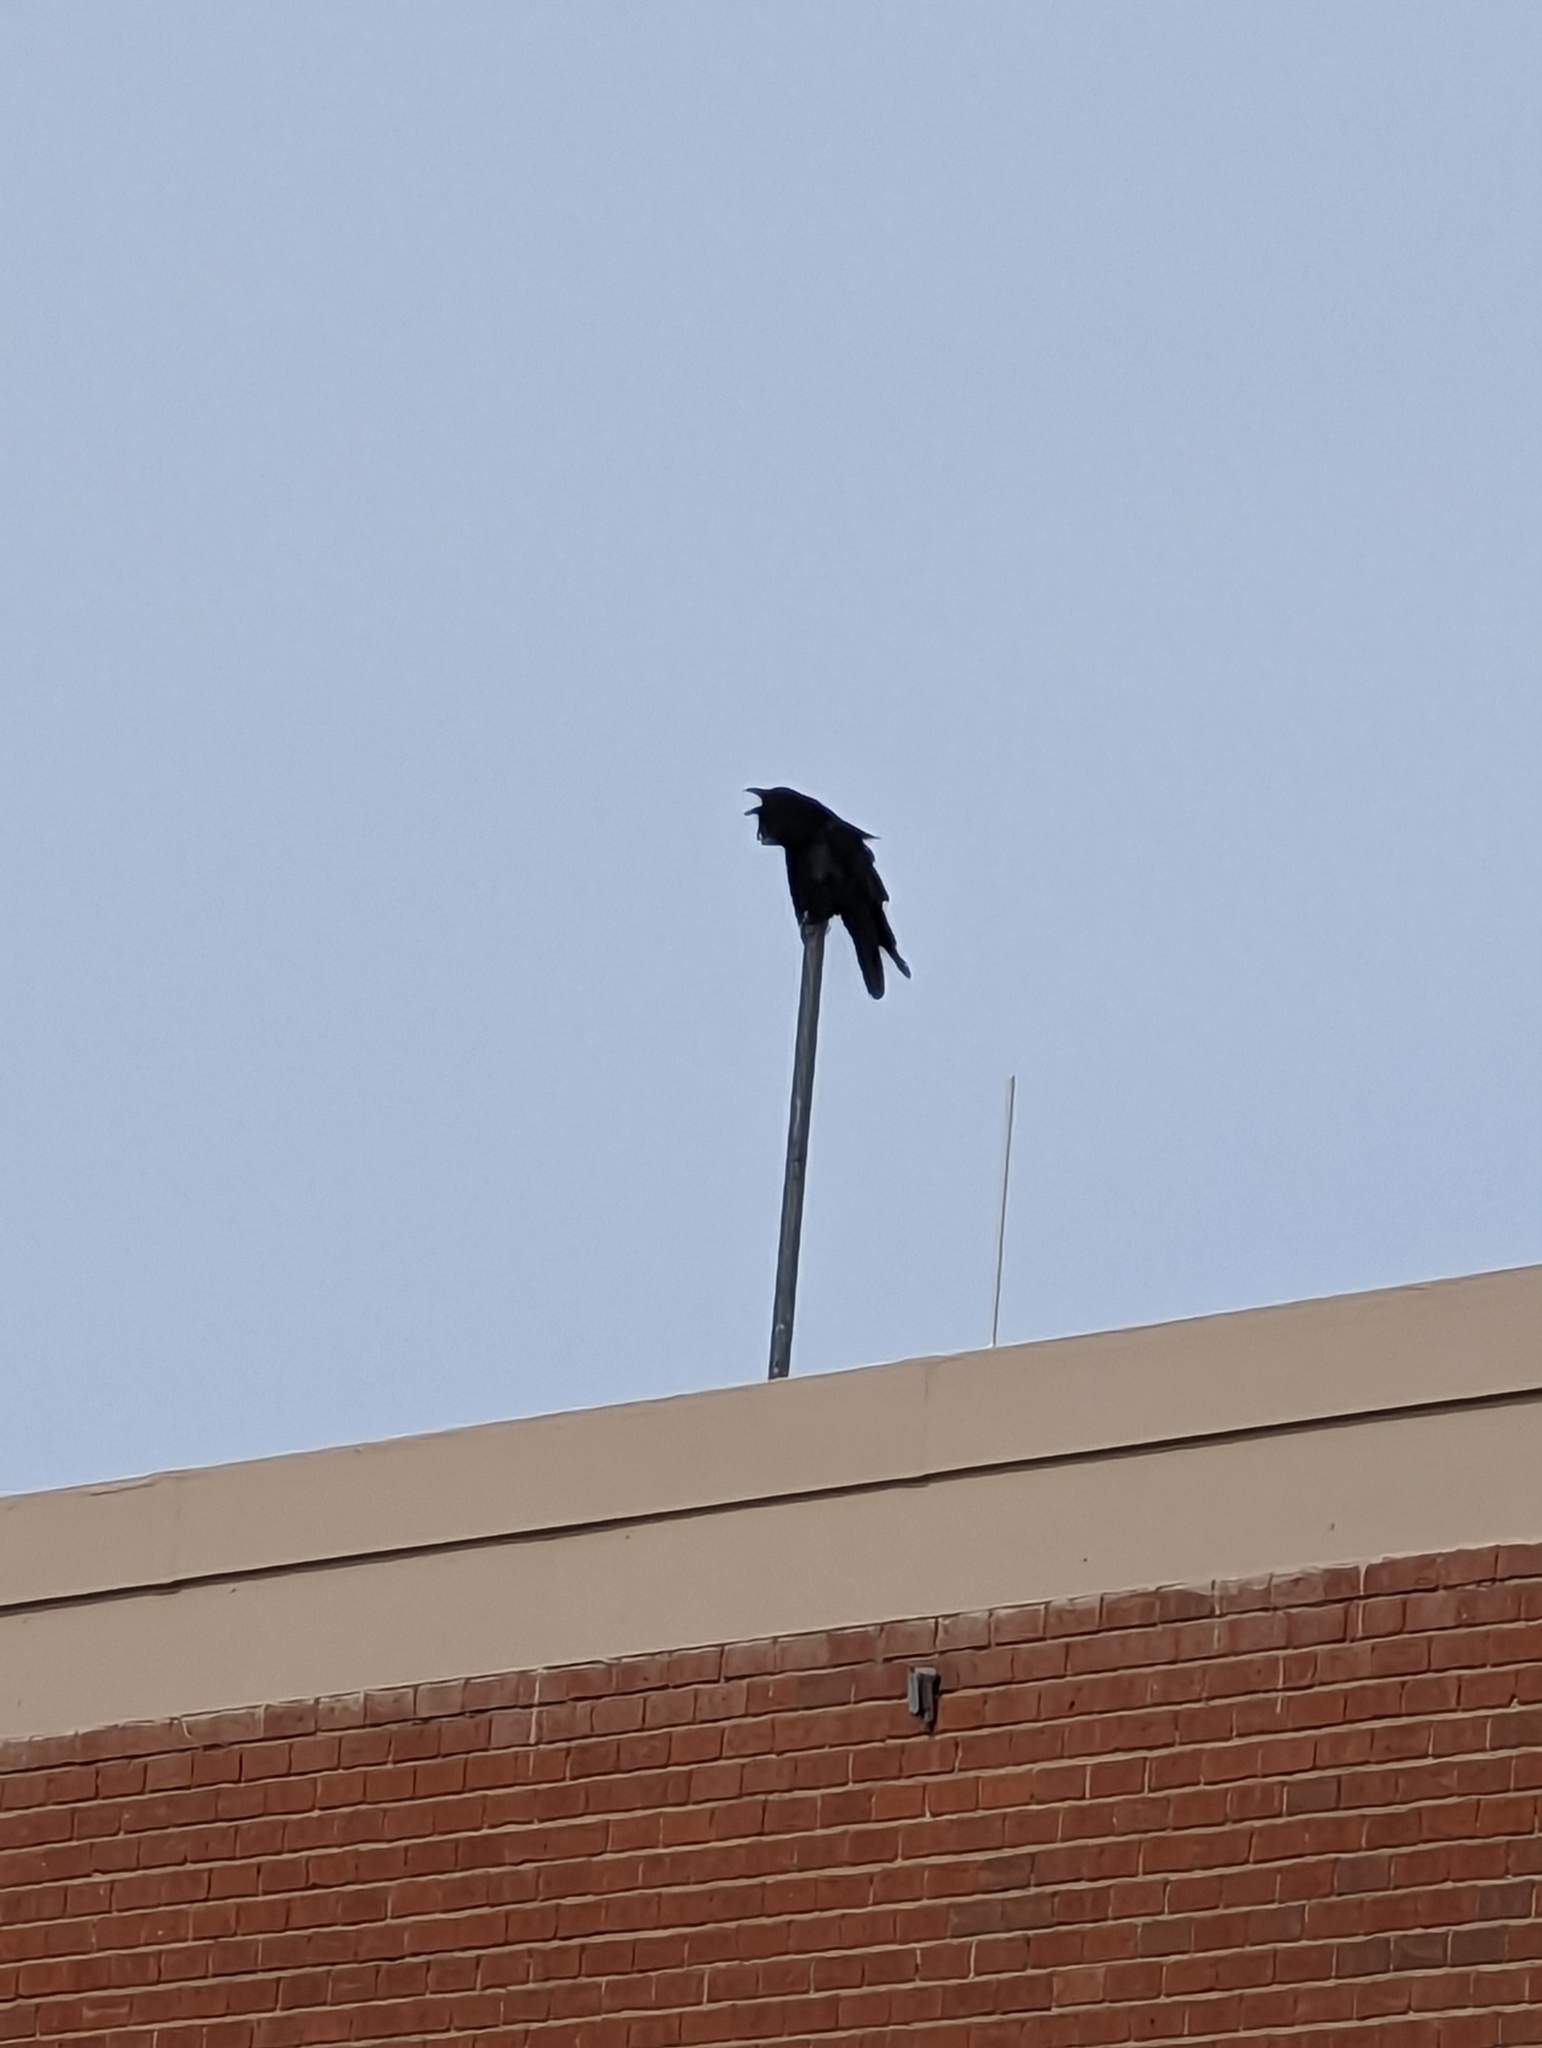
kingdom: Animalia
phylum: Chordata
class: Aves
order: Passeriformes
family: Corvidae
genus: Corvus
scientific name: Corvus corax
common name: Common raven
